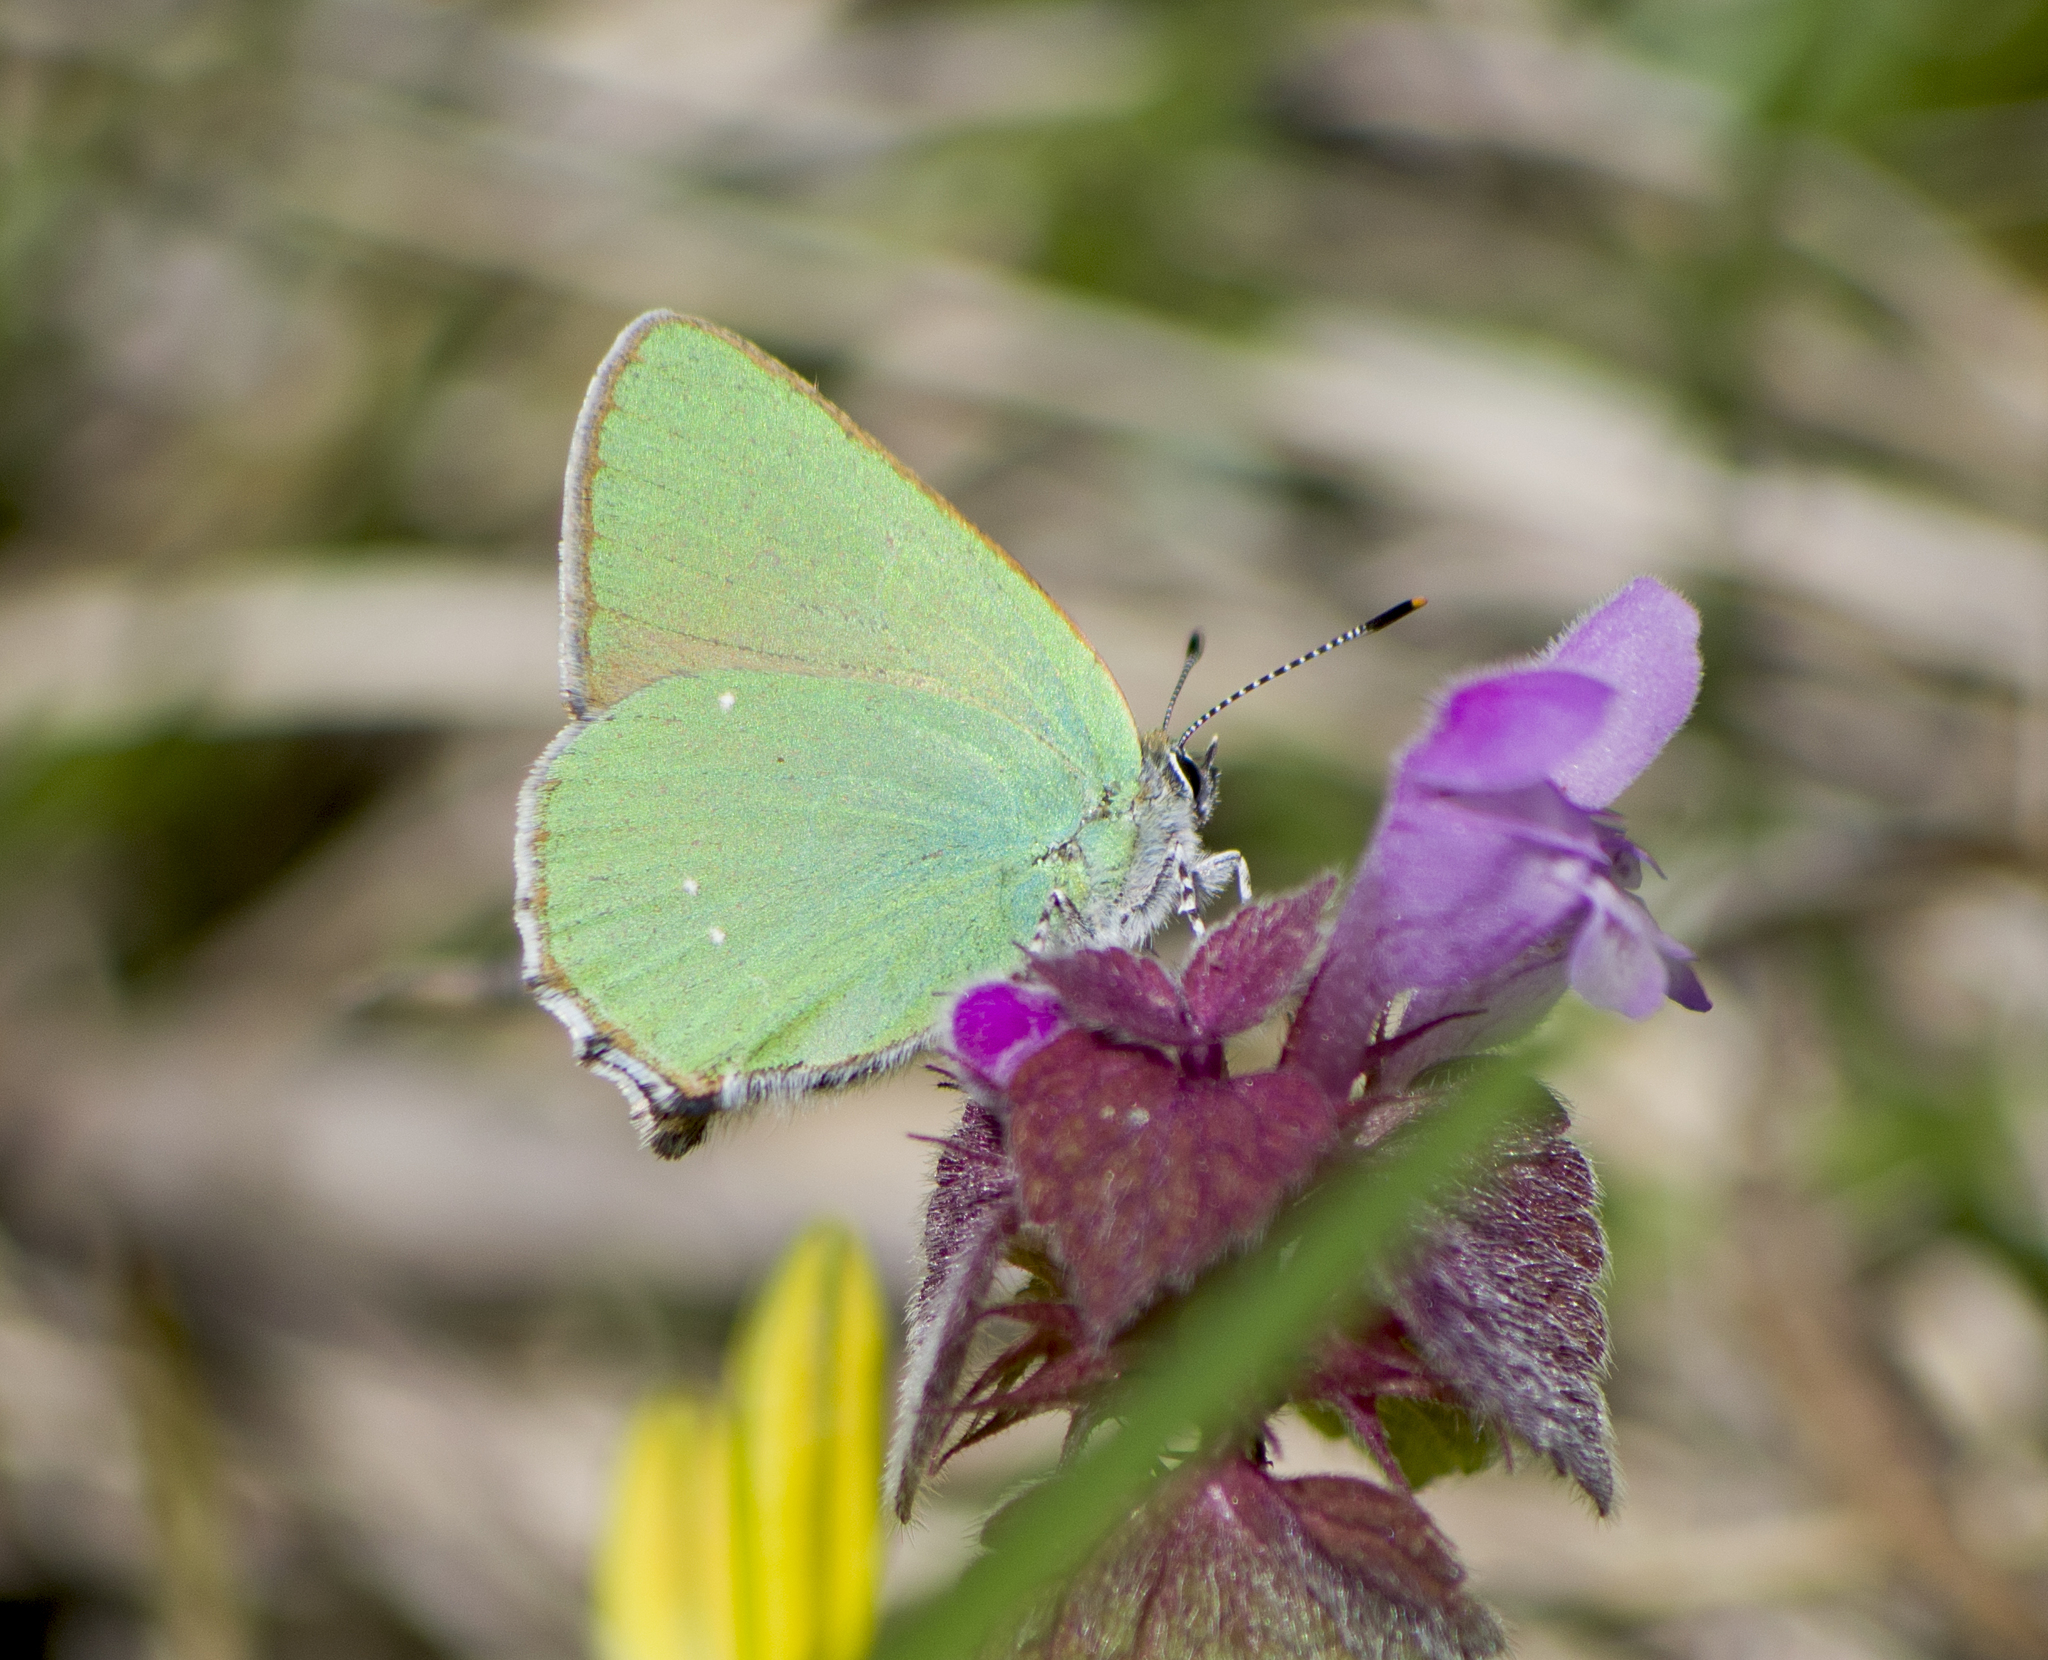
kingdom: Animalia
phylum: Arthropoda
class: Insecta
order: Lepidoptera
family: Lycaenidae
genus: Callophrys
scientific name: Callophrys rubi
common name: Green hairstreak
